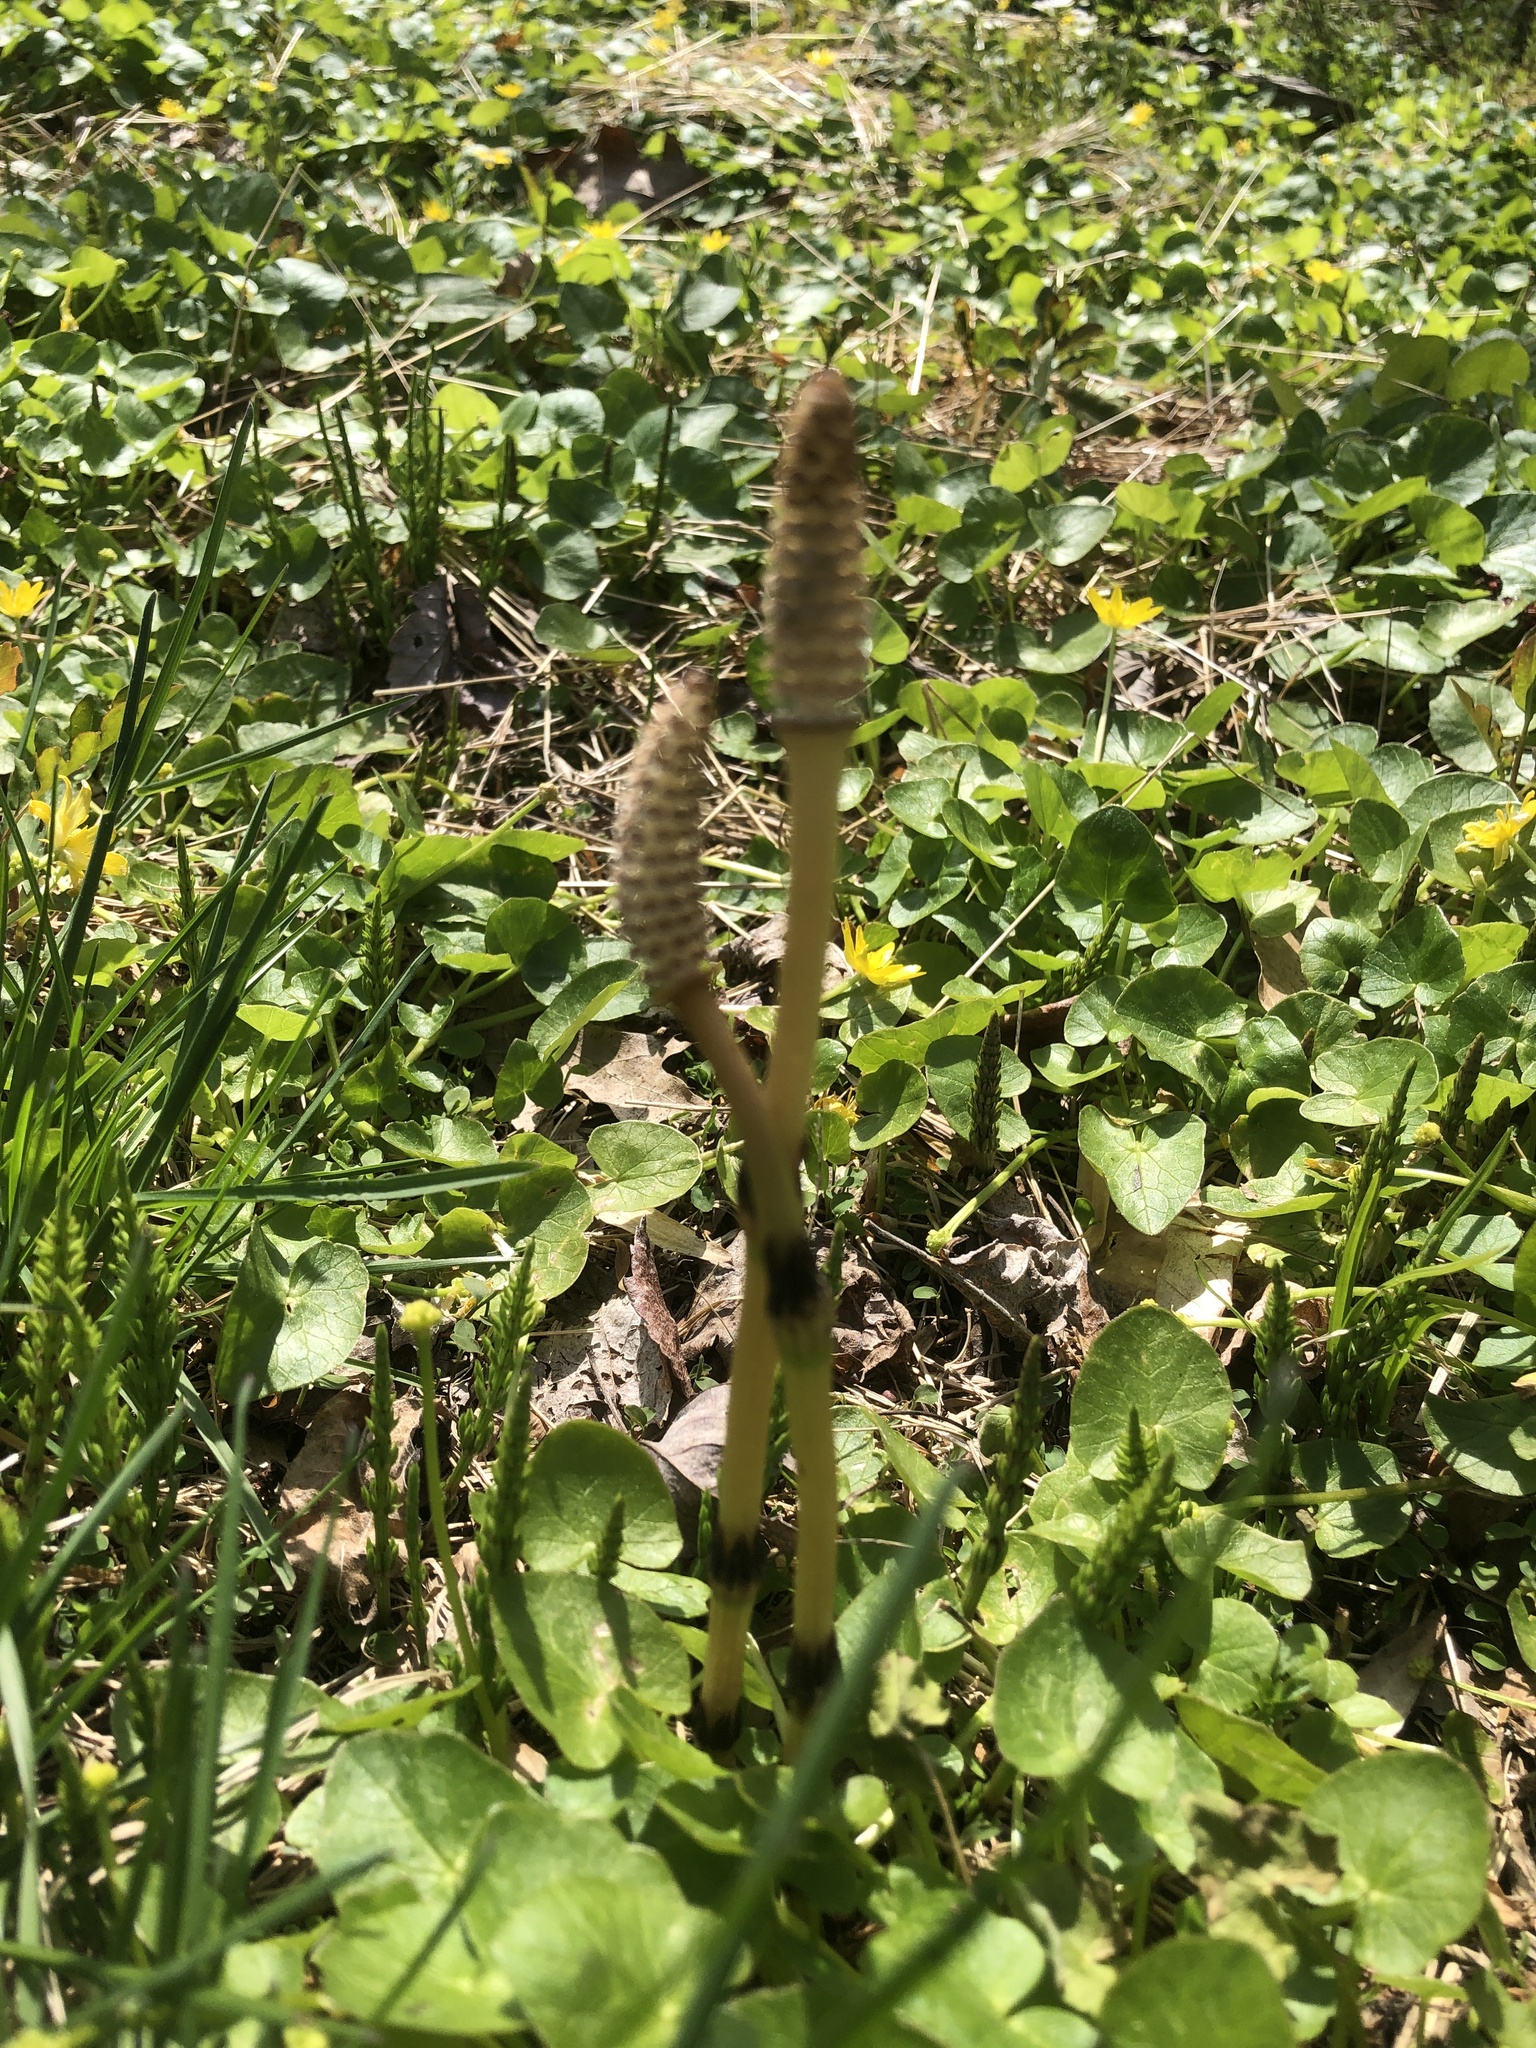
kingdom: Plantae
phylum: Tracheophyta
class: Polypodiopsida
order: Equisetales
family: Equisetaceae
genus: Equisetum
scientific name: Equisetum arvense
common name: Field horsetail
